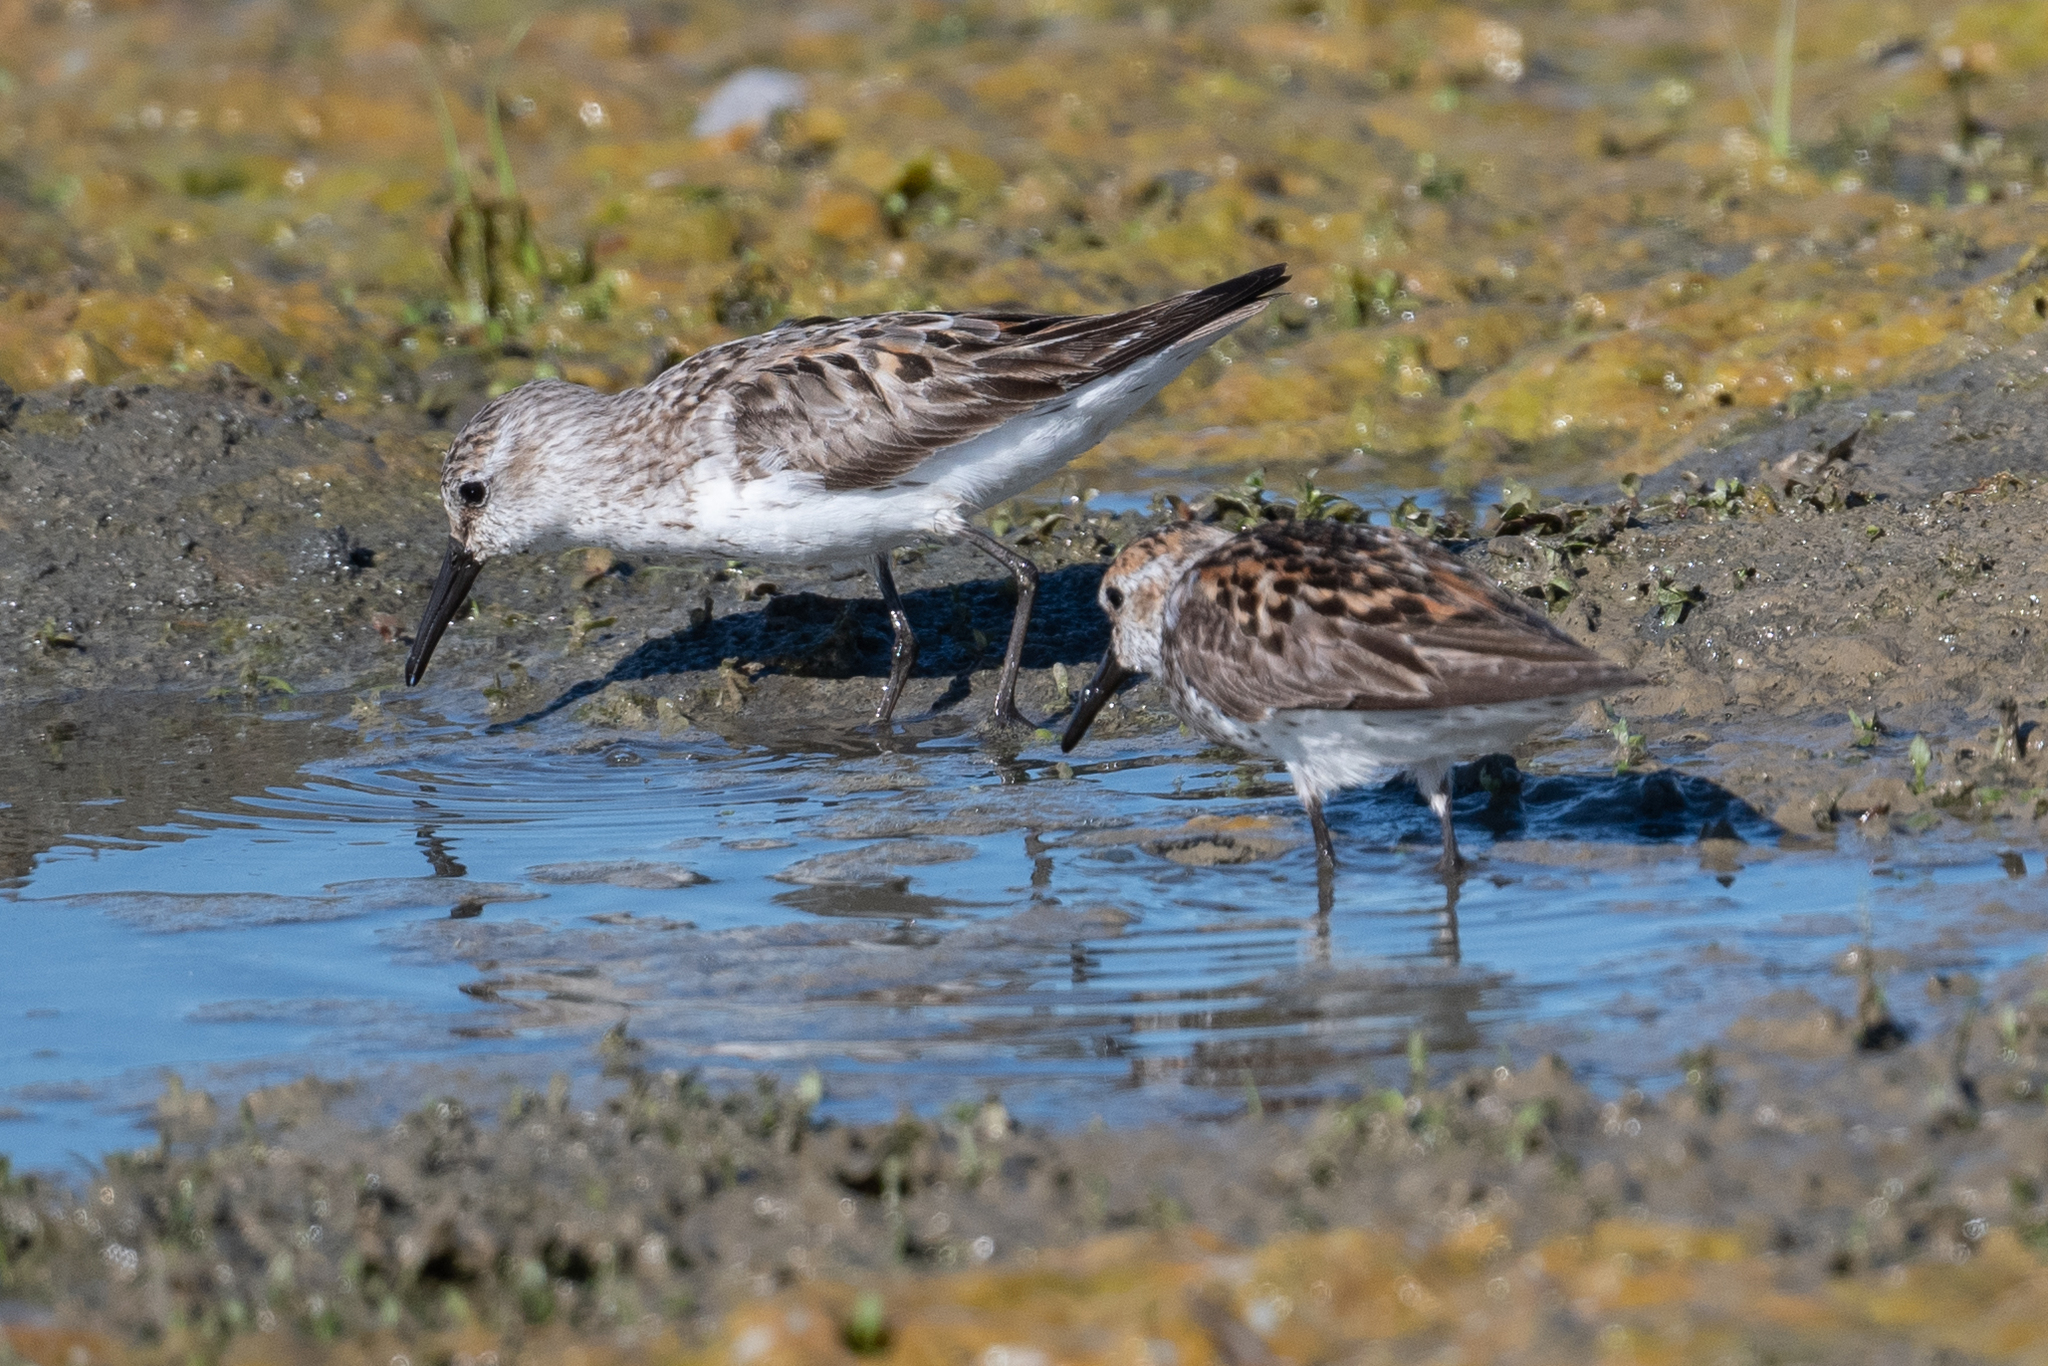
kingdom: Animalia
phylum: Chordata
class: Aves
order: Charadriiformes
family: Scolopacidae
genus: Calidris
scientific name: Calidris mauri
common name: Western sandpiper
